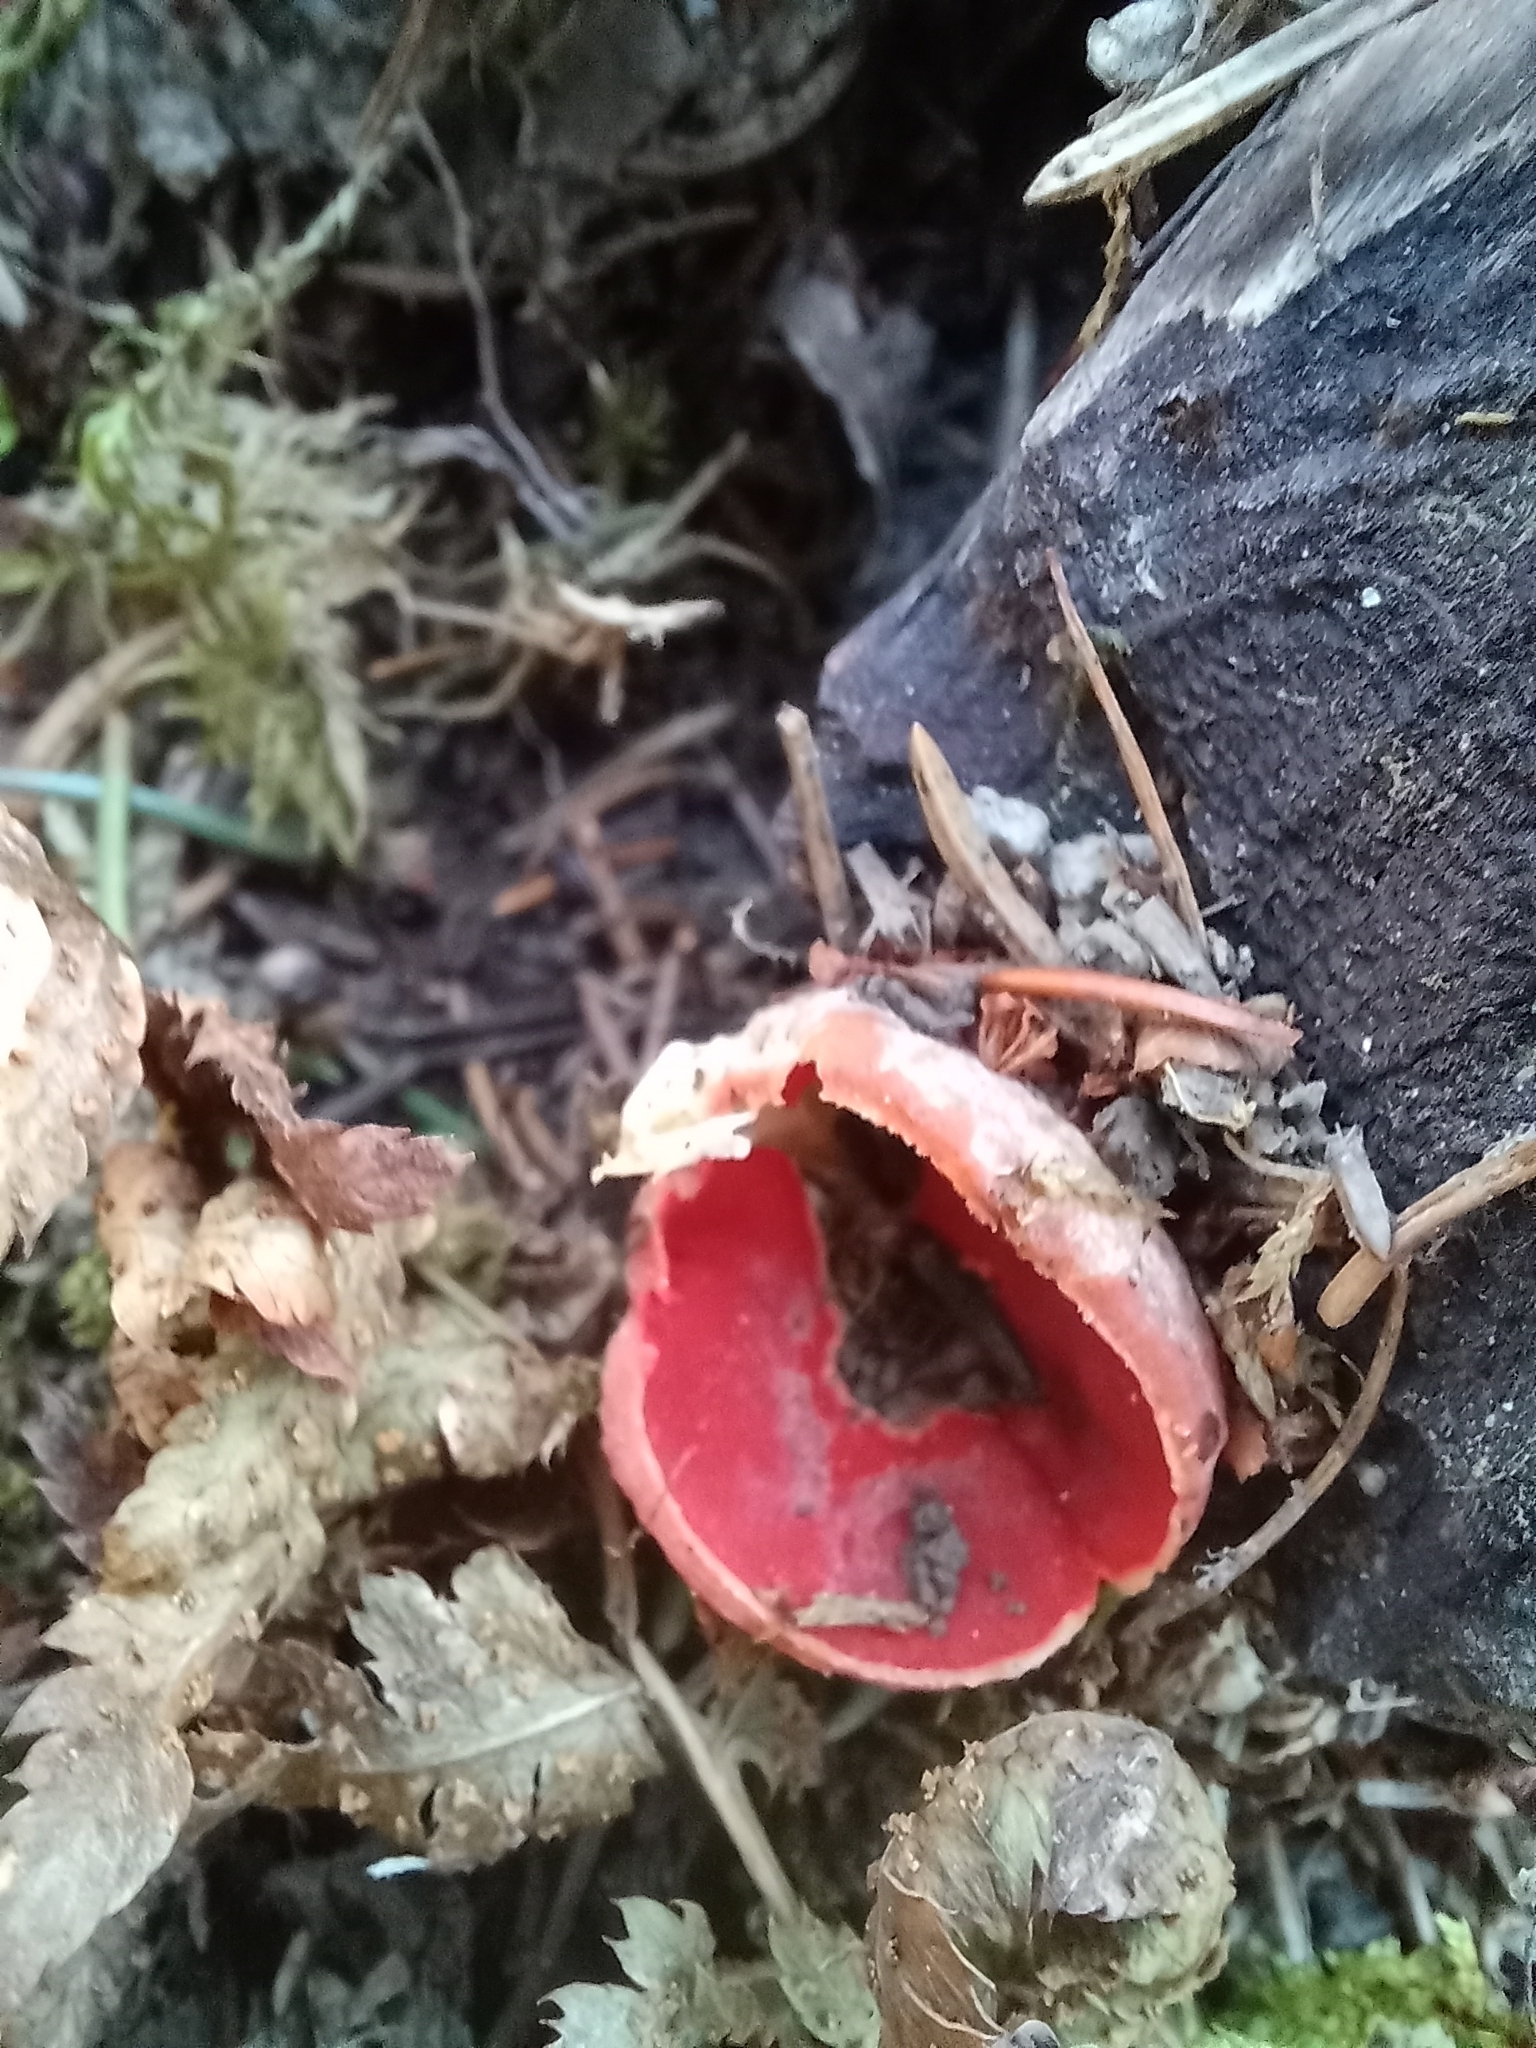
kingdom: Fungi
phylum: Ascomycota
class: Pezizomycetes
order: Pezizales
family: Sarcoscyphaceae
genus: Sarcoscypha
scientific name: Sarcoscypha austriaca
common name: Scarlet elfcup
